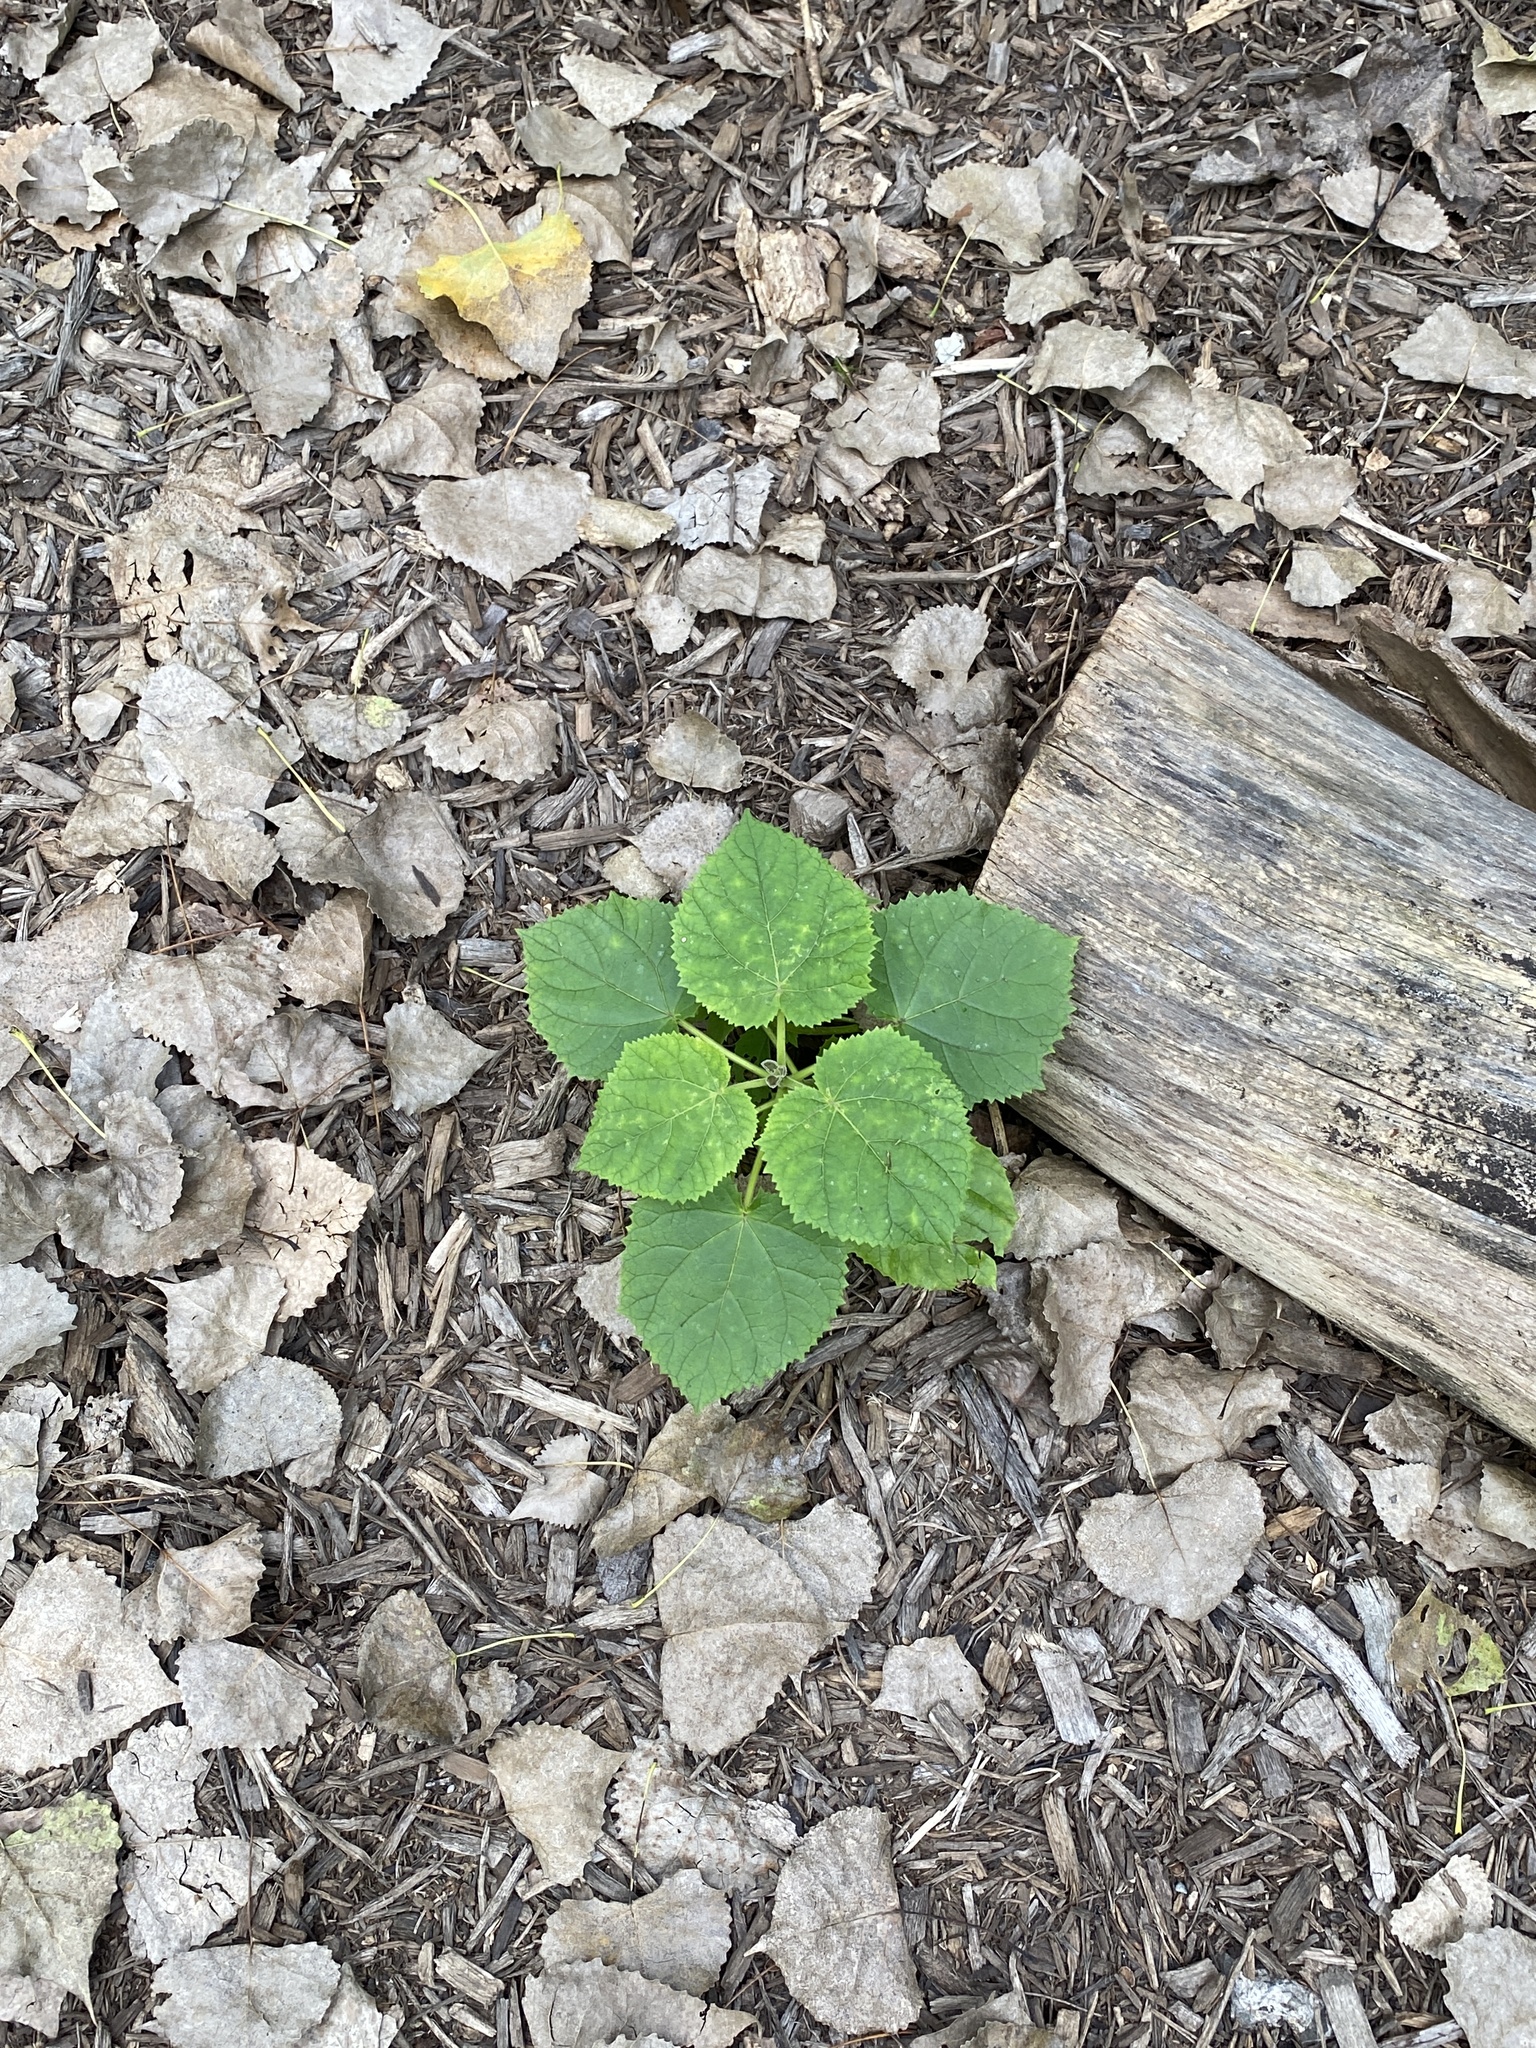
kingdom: Plantae
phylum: Tracheophyta
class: Magnoliopsida
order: Lamiales
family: Paulowniaceae
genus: Paulownia
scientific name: Paulownia tomentosa
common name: Foxglove-tree
